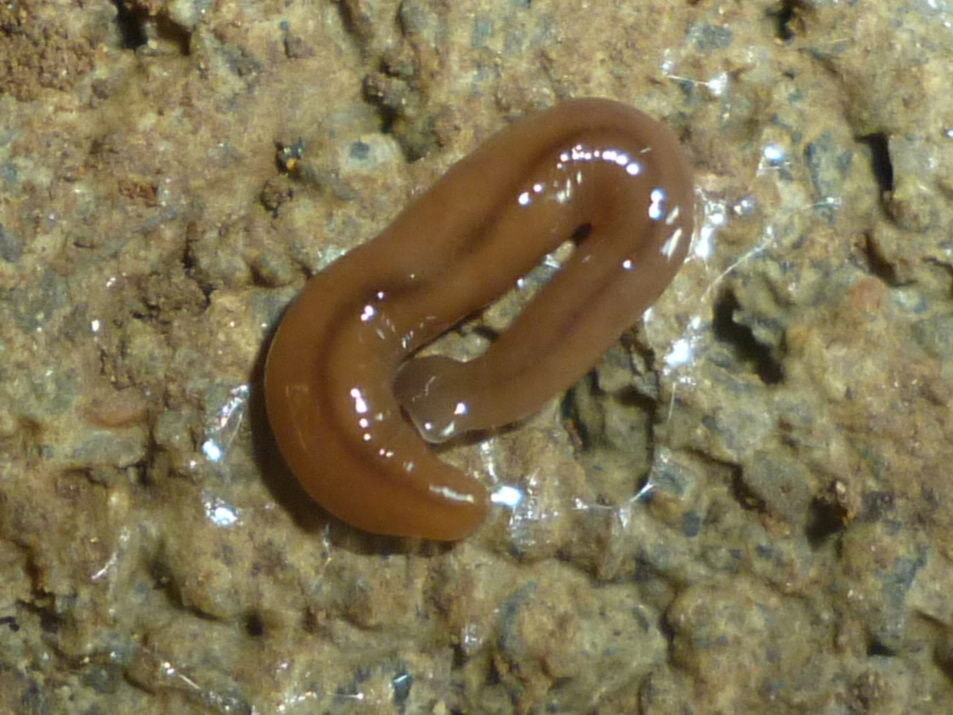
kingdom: Animalia
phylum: Platyhelminthes
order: Tricladida
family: Geoplanidae
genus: Bipalium
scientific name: Bipalium adventitium
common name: Land planarian
